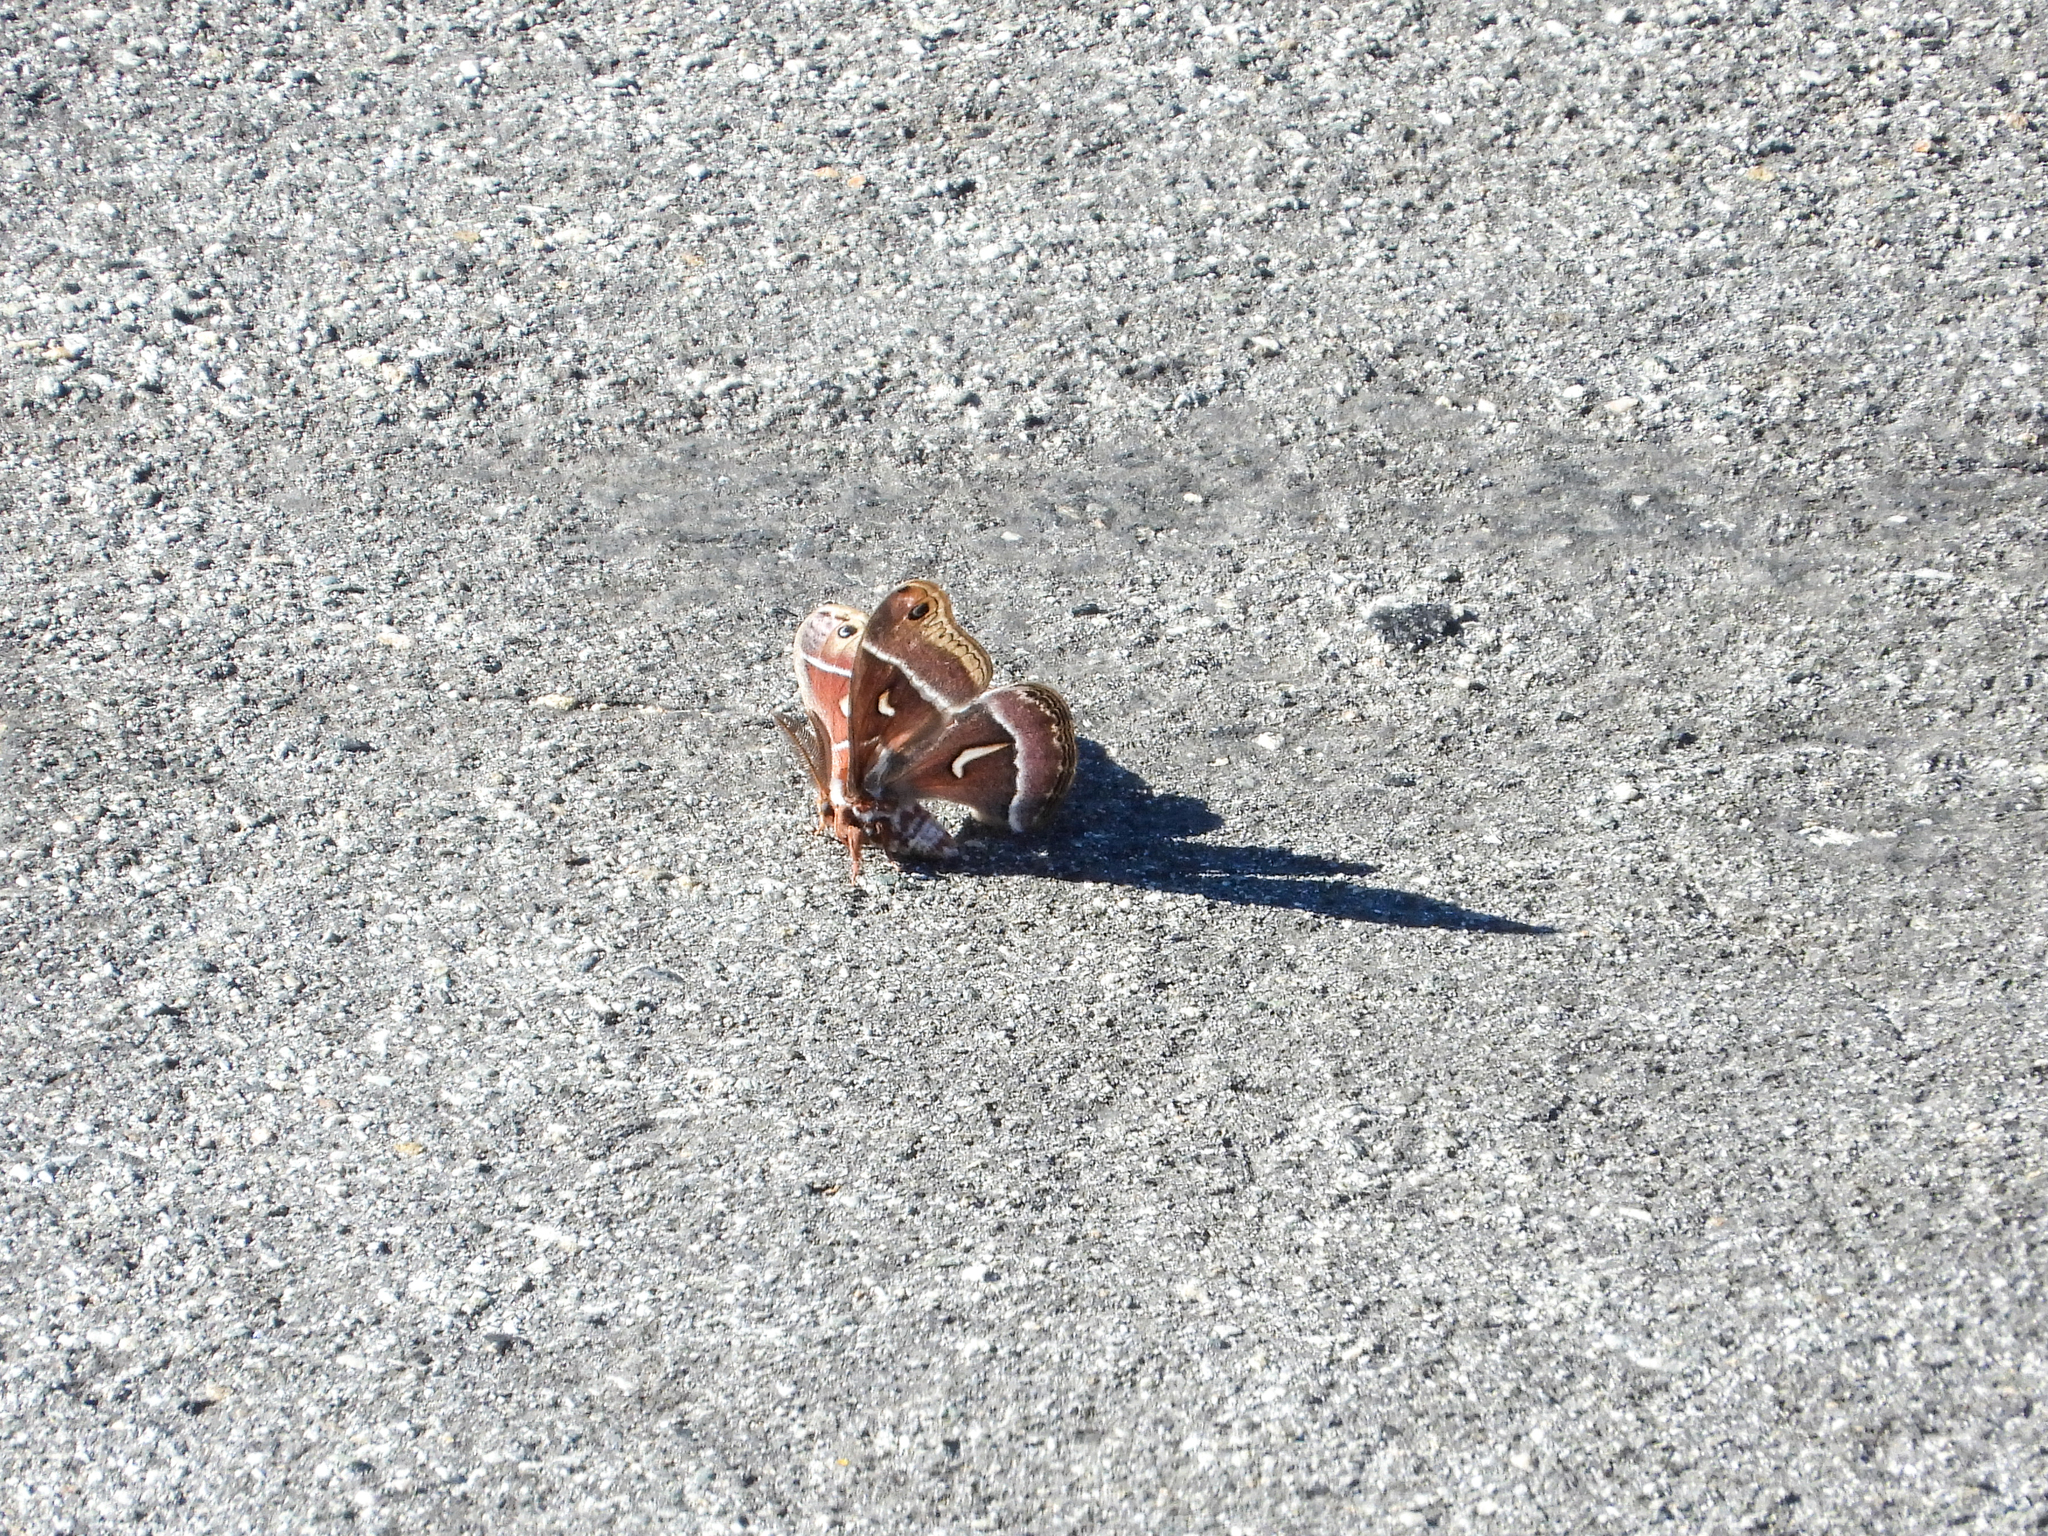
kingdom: Animalia
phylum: Arthropoda
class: Insecta
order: Lepidoptera
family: Saturniidae
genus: Hyalophora
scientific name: Hyalophora euryalus
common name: Ceanothus silkmoth
